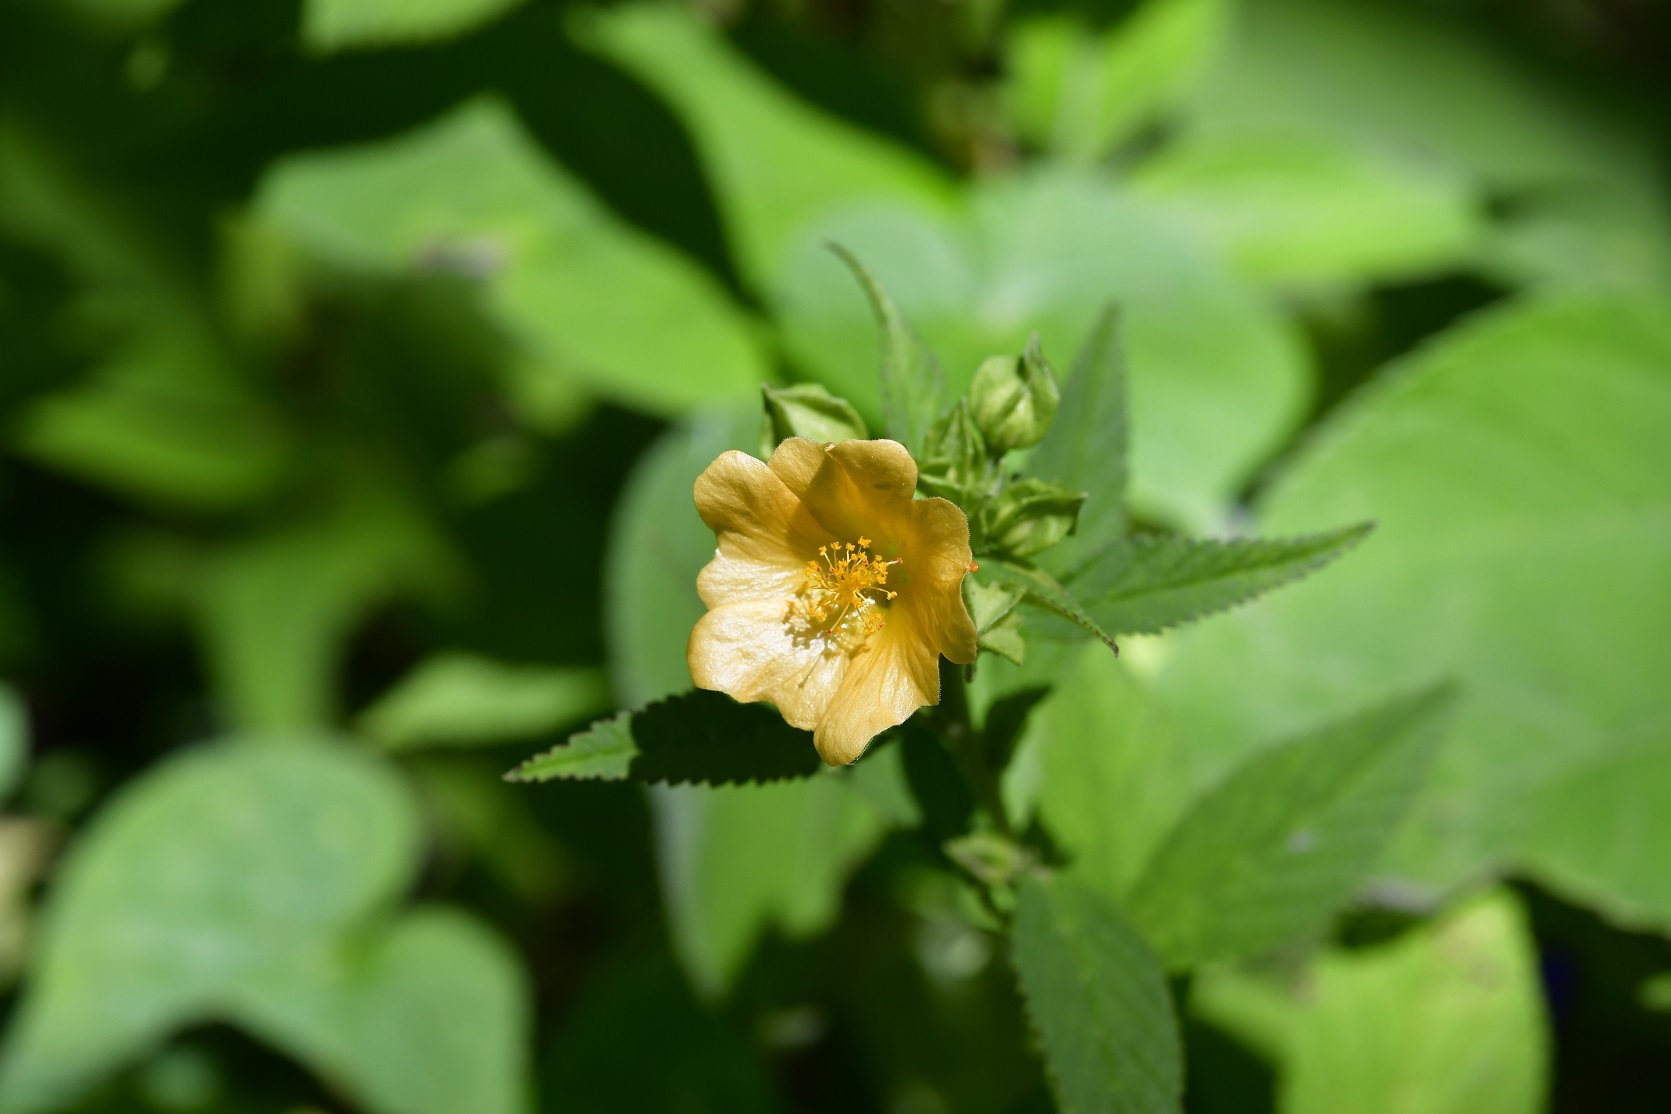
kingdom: Plantae
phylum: Tracheophyta
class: Magnoliopsida
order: Malvales
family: Malvaceae
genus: Sida
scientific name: Sida acuta
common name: Common wireweed
